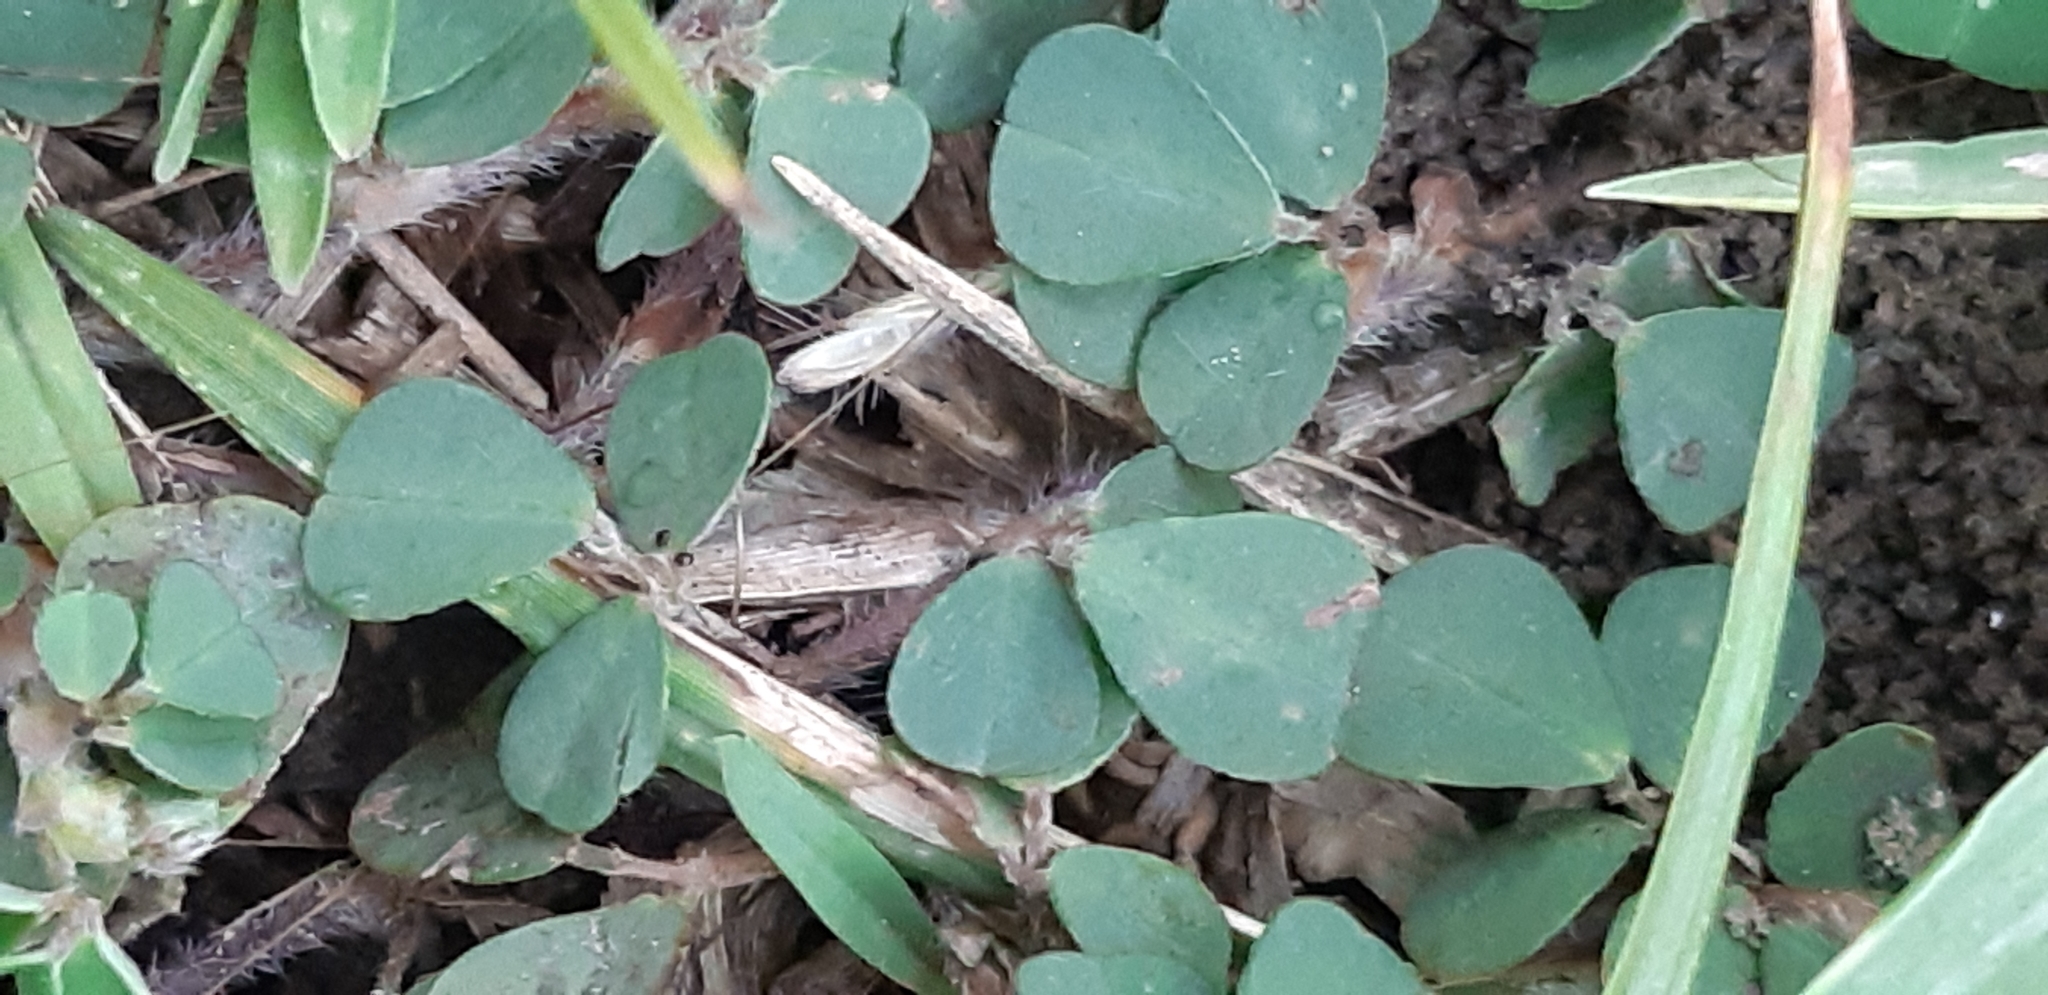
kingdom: Plantae
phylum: Tracheophyta
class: Magnoliopsida
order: Fabales
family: Fabaceae
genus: Grona
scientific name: Grona triflora
